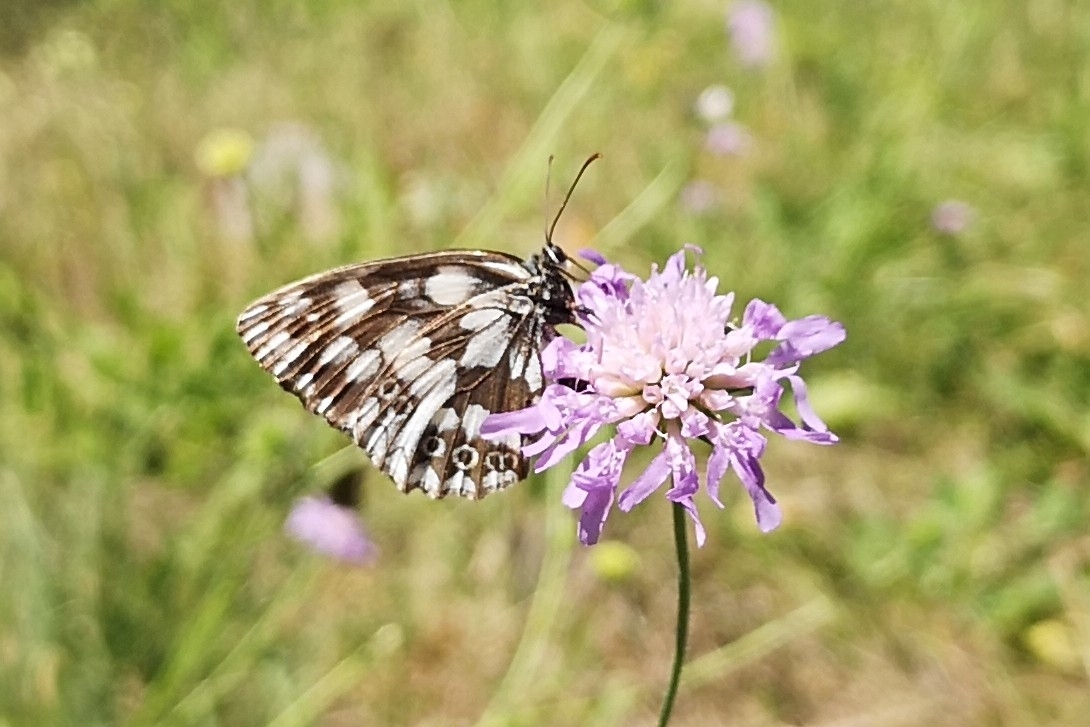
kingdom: Animalia
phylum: Arthropoda
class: Insecta
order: Lepidoptera
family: Nymphalidae
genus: Melanargia
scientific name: Melanargia galathea
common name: Marbled white
